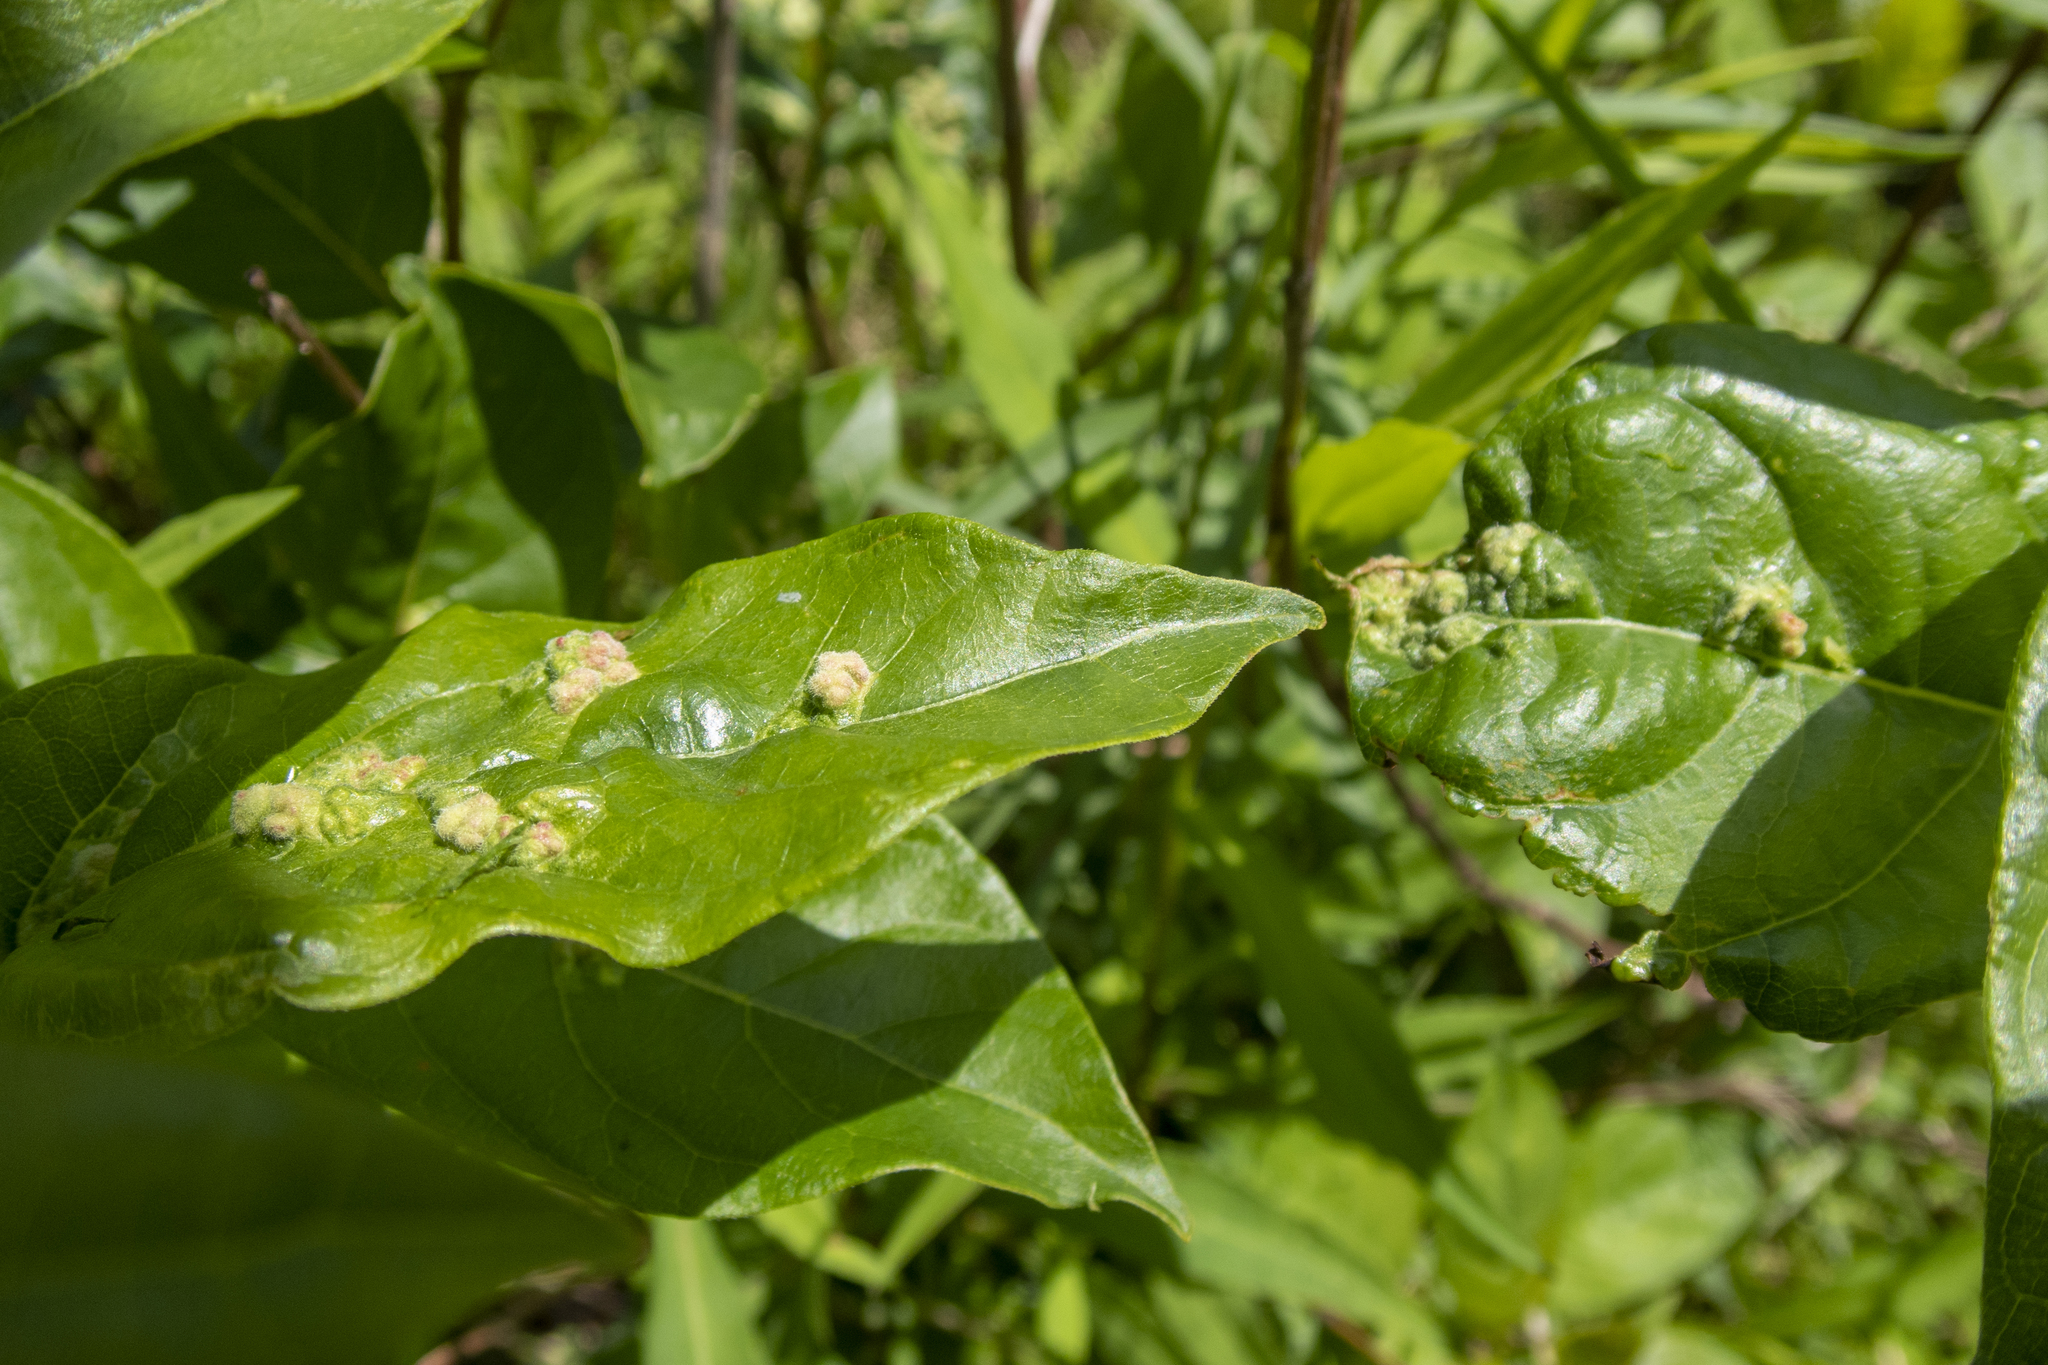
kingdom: Animalia
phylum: Arthropoda
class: Arachnida
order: Trombidiformes
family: Eriophyidae
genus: Aceria
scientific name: Aceria
